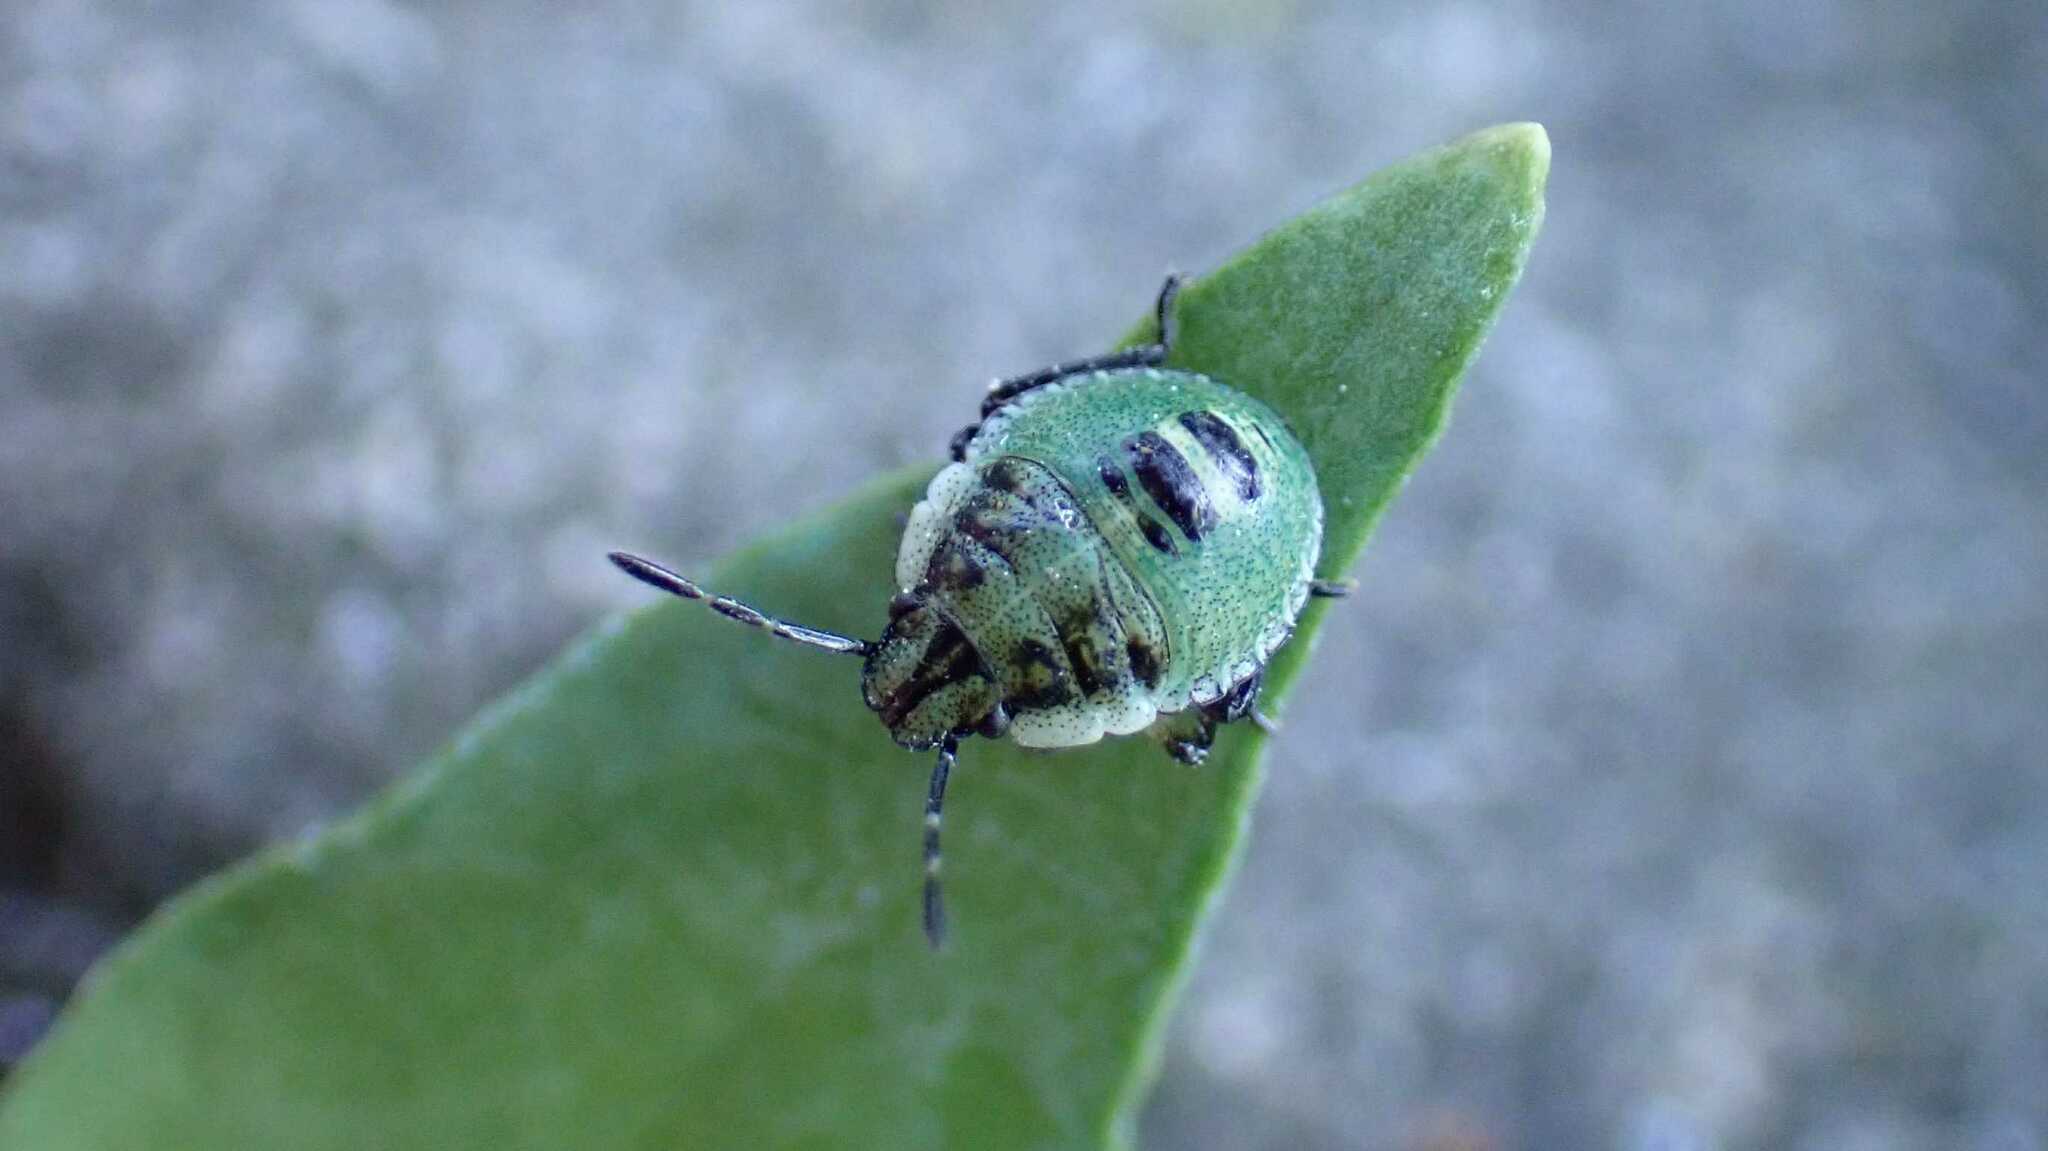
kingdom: Animalia
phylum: Arthropoda
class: Insecta
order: Hemiptera
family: Pentatomidae
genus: Palomena
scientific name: Palomena prasina
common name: Green shieldbug
